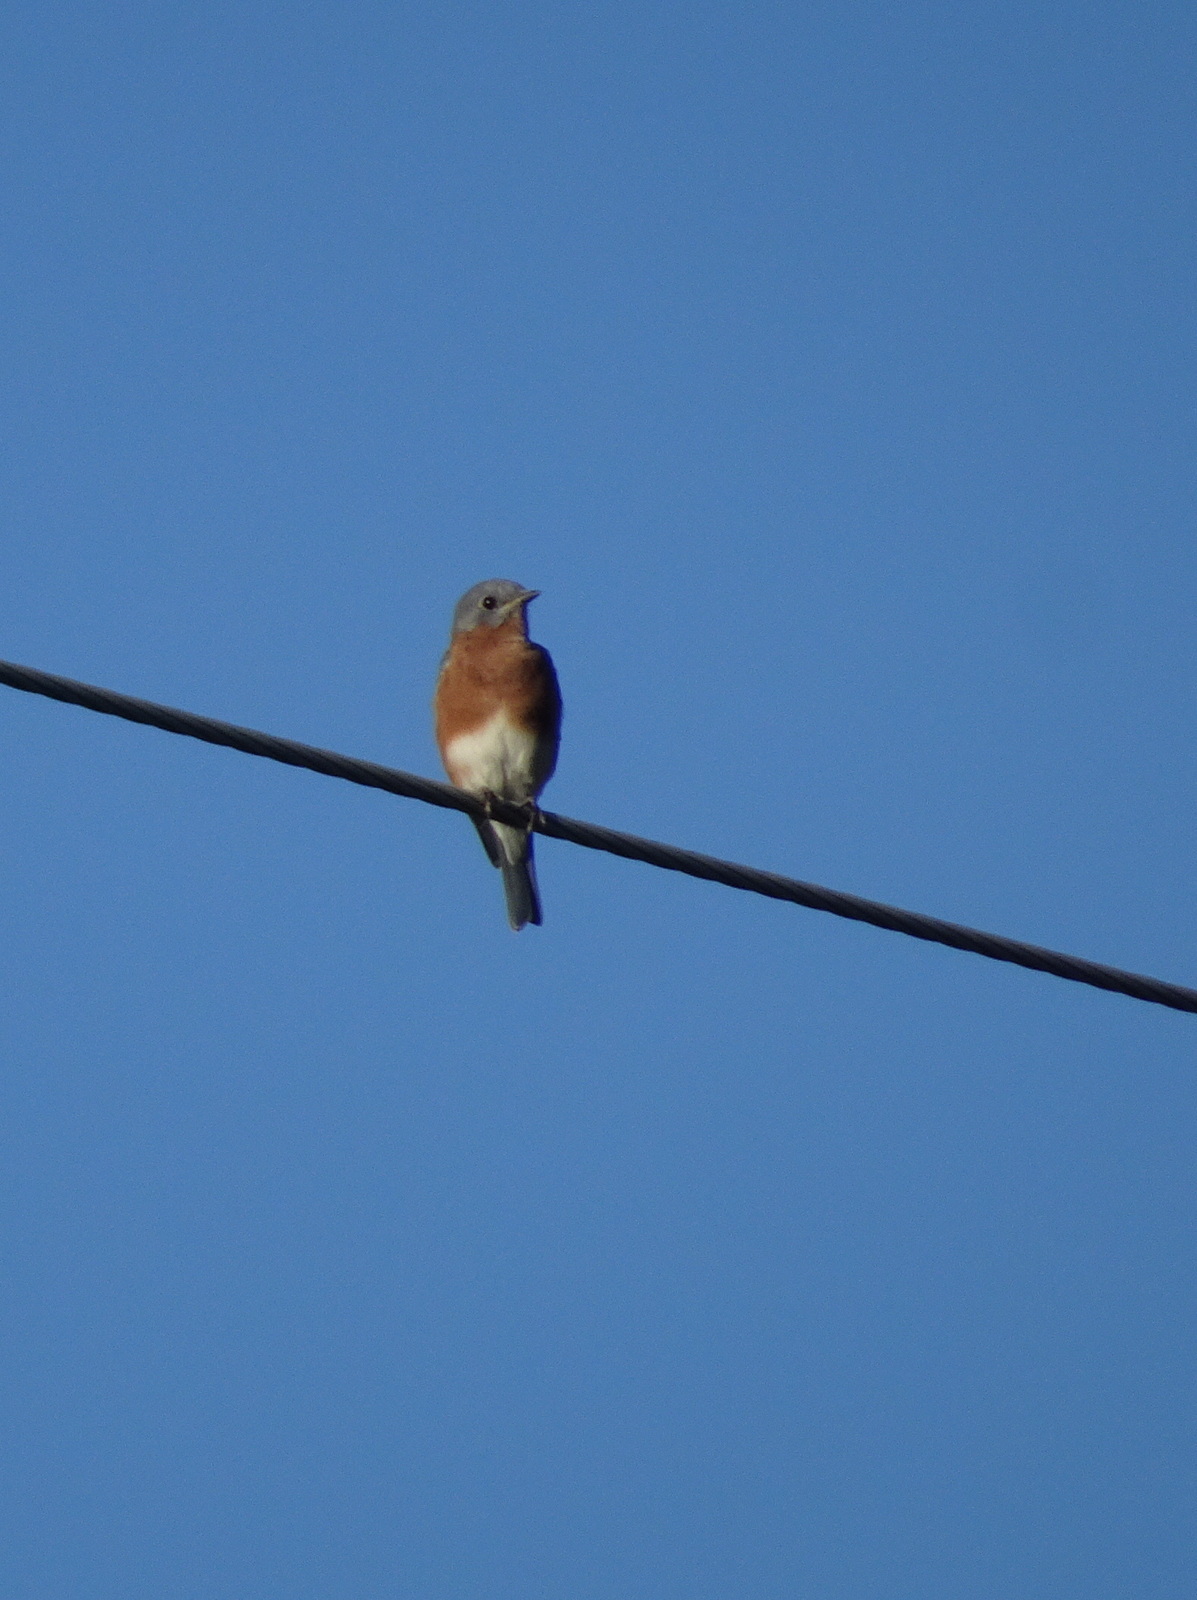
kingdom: Animalia
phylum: Chordata
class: Aves
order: Passeriformes
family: Turdidae
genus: Sialia
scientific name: Sialia sialis
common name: Eastern bluebird
